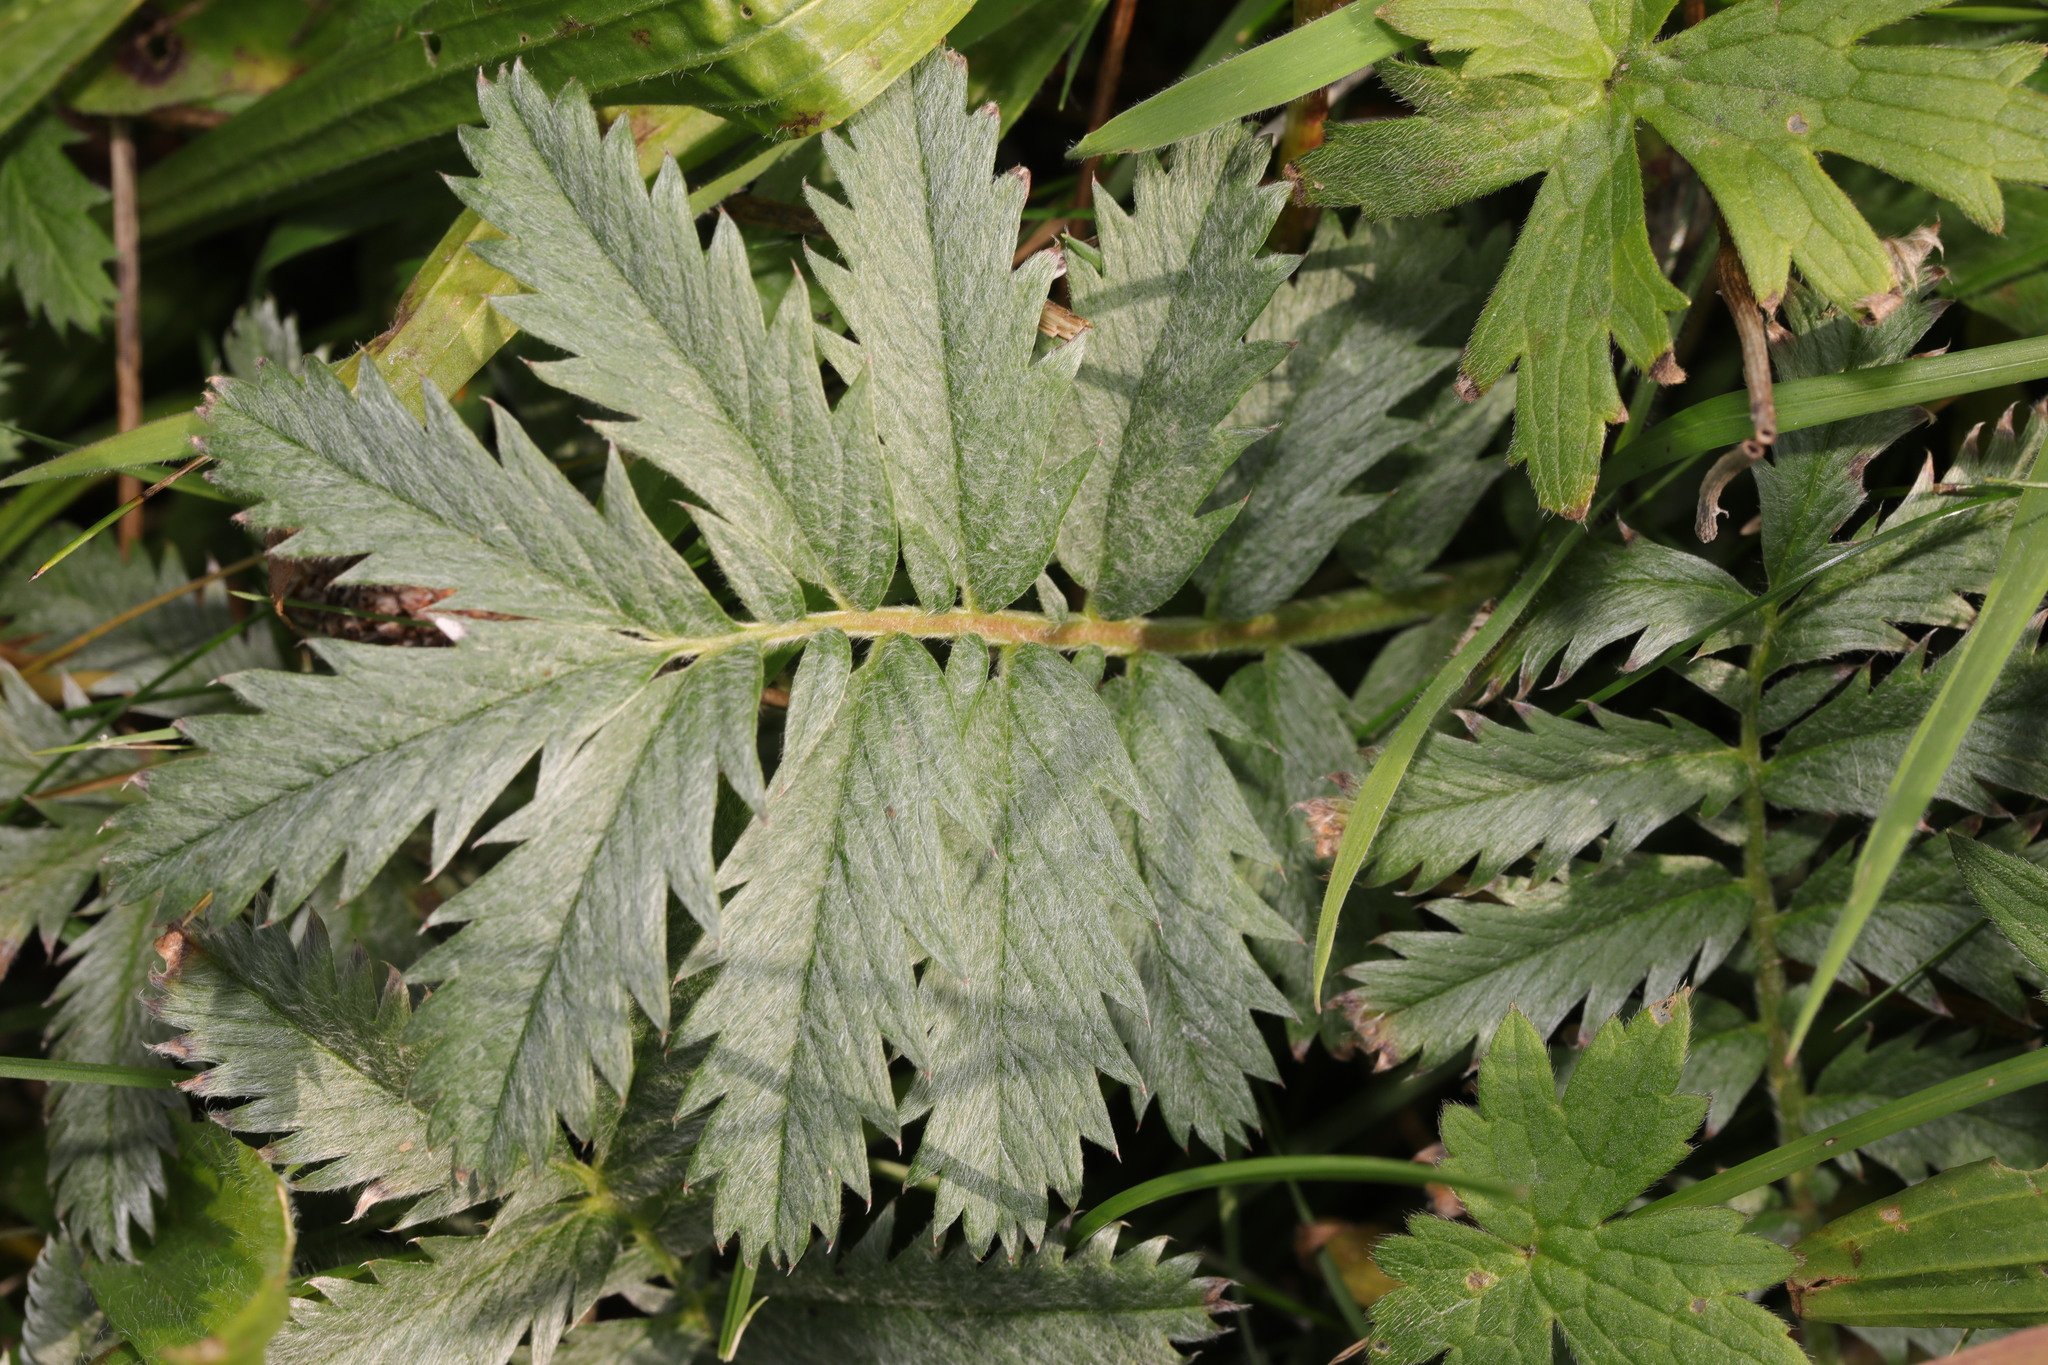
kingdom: Plantae
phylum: Tracheophyta
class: Magnoliopsida
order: Rosales
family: Rosaceae
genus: Argentina
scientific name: Argentina anserina
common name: Common silverweed
